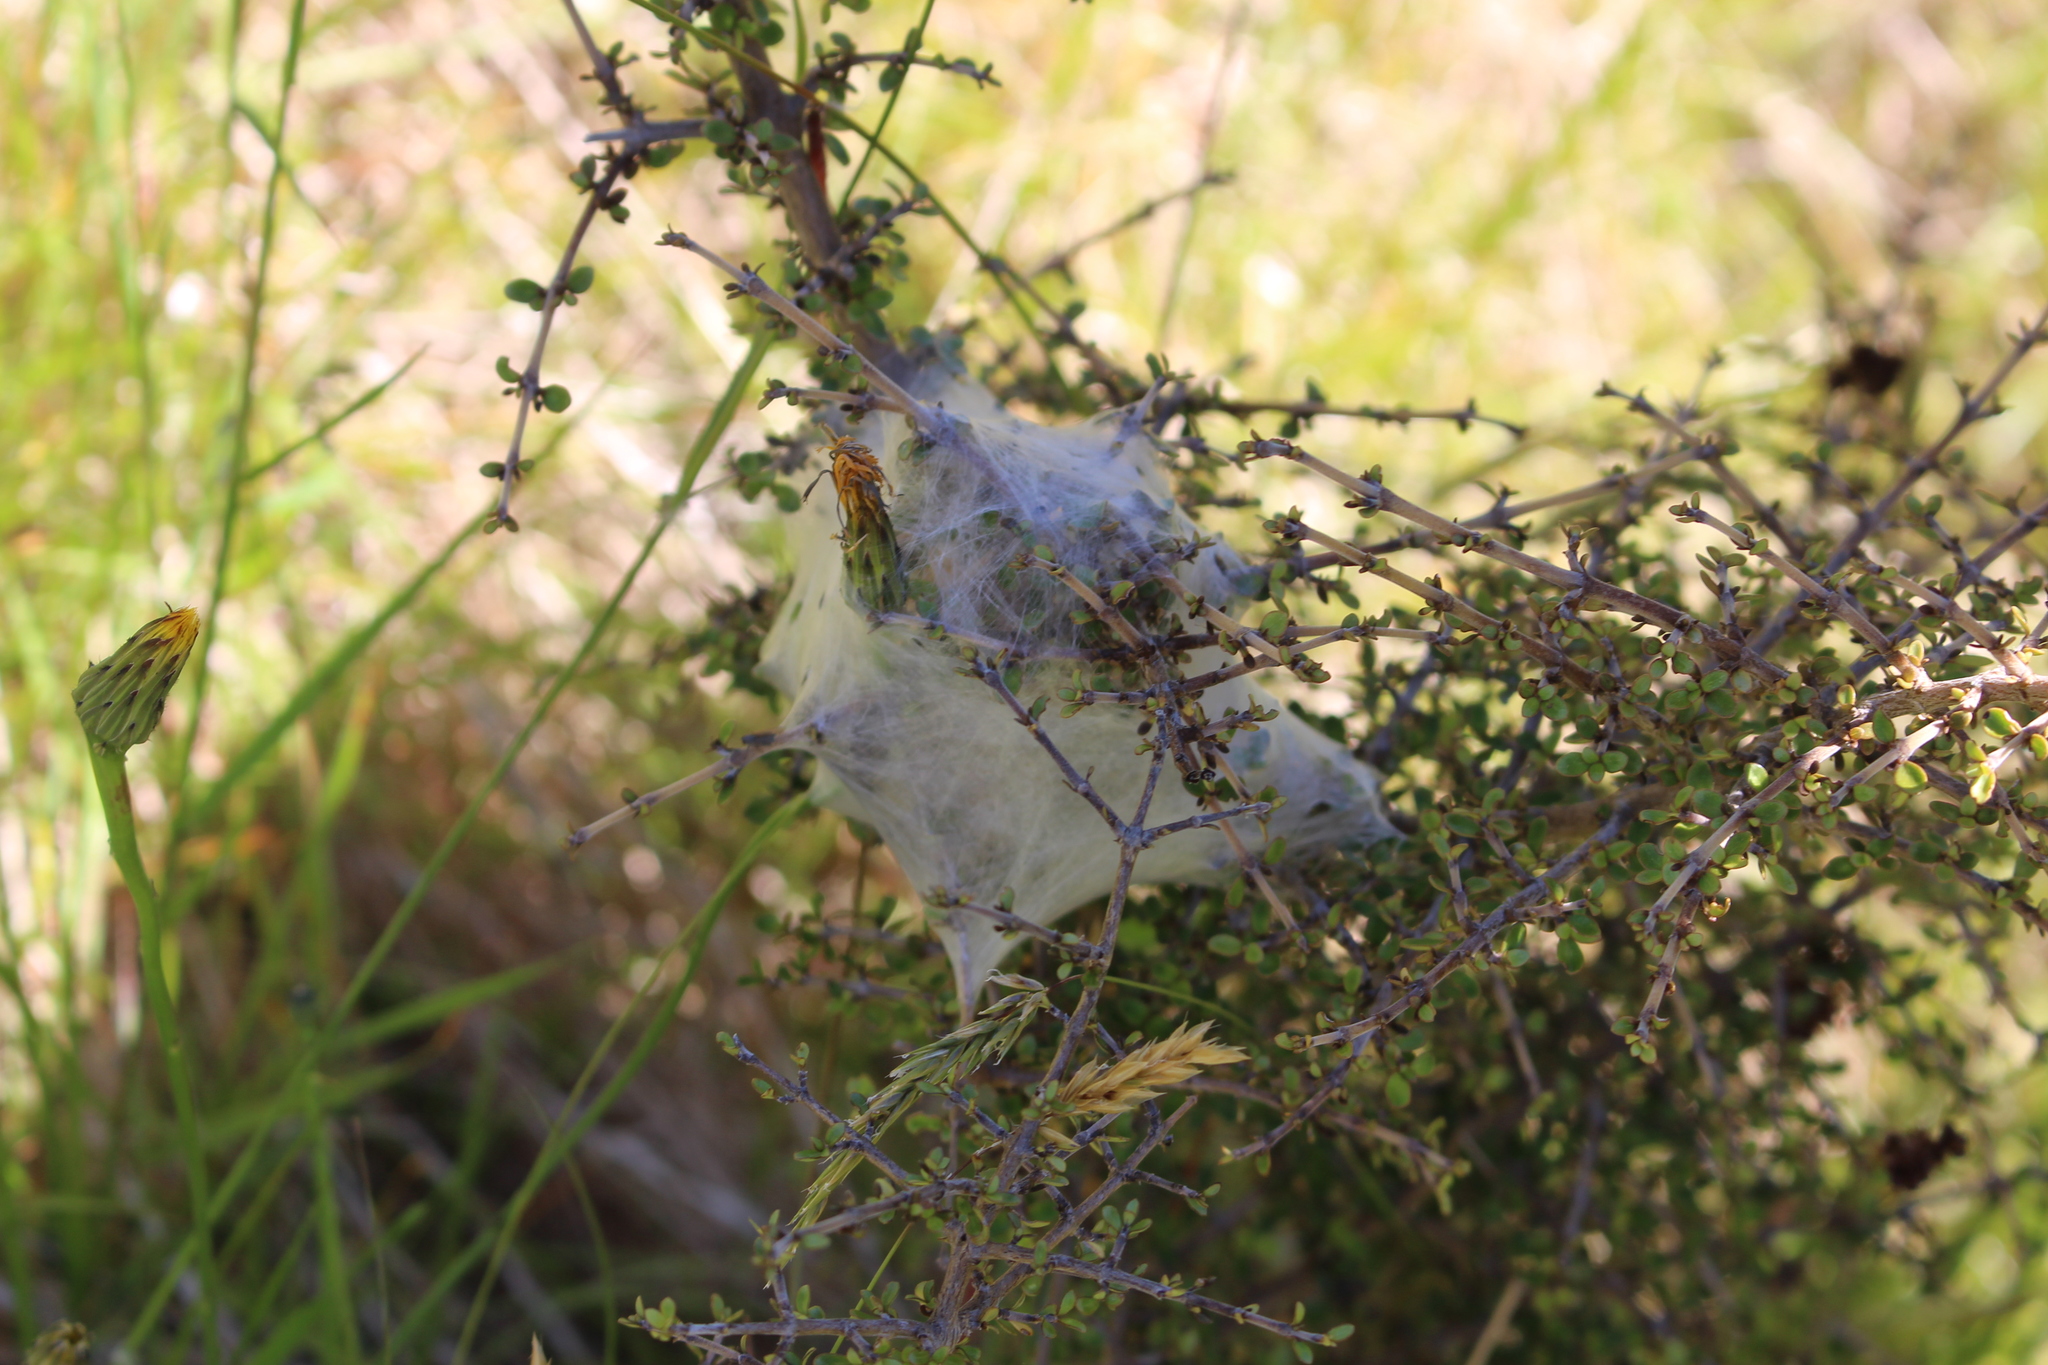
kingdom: Animalia
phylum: Arthropoda
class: Arachnida
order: Araneae
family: Pisauridae
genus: Dolomedes
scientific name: Dolomedes minor
